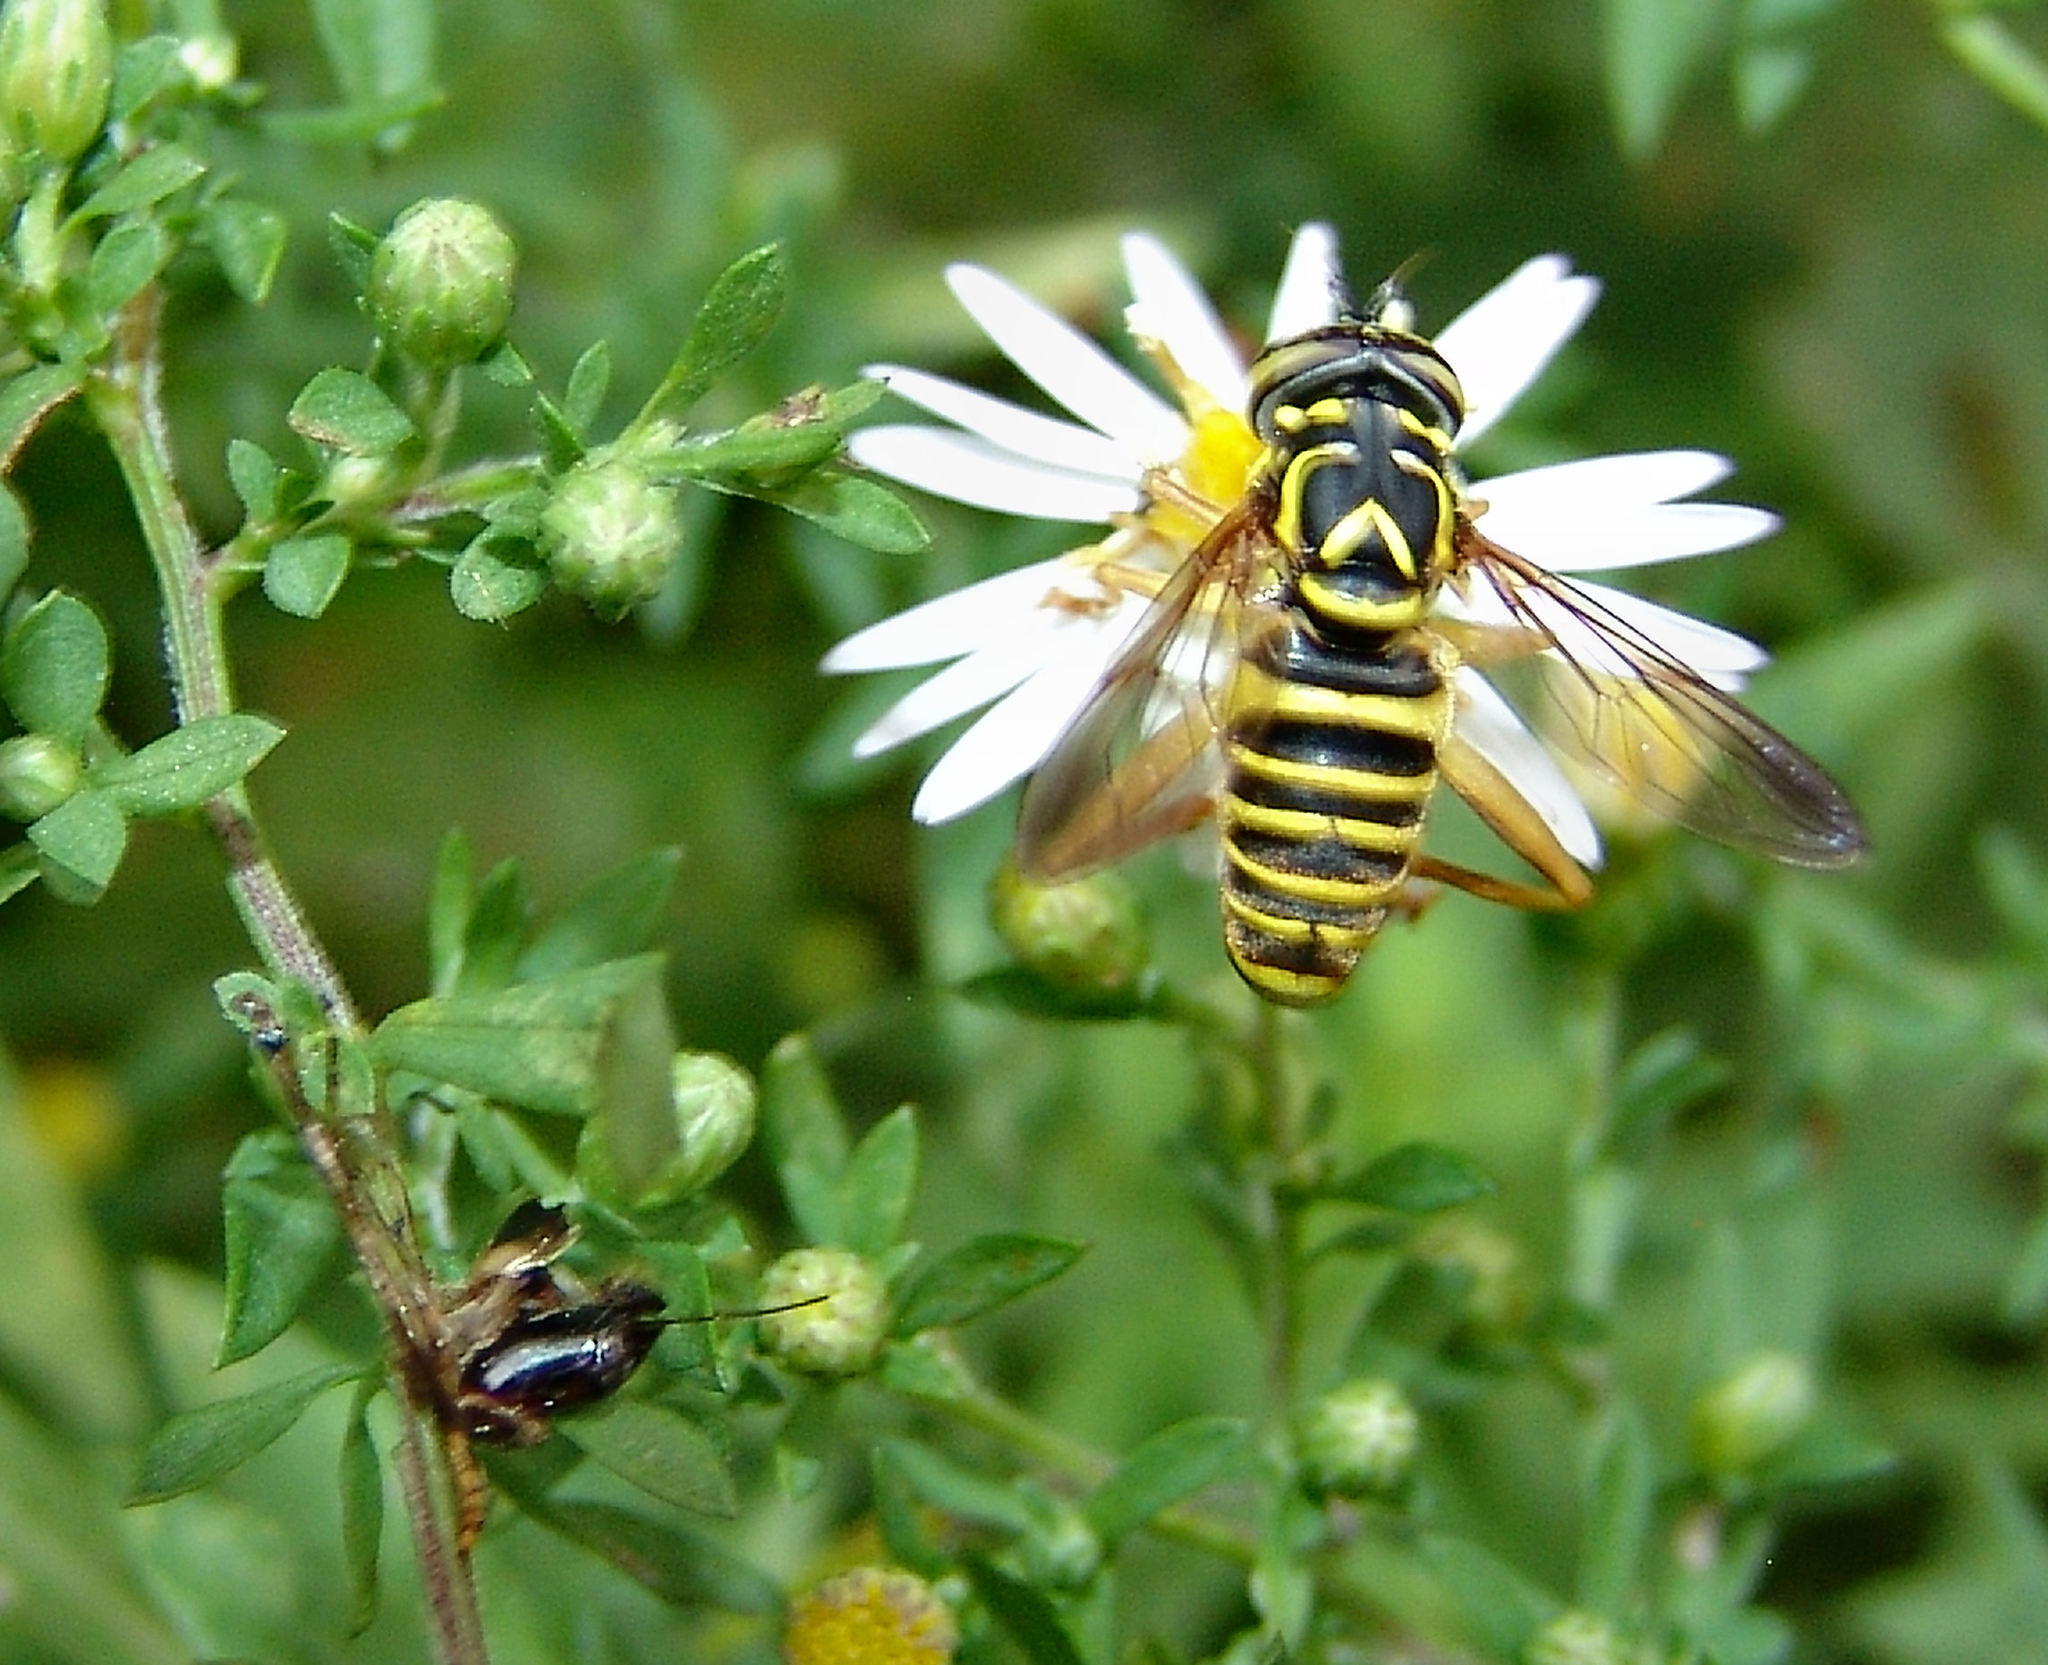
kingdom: Animalia
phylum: Arthropoda
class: Insecta
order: Diptera
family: Syrphidae
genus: Spilomyia
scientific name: Spilomyia longicornis
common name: Eastern hornet fly
